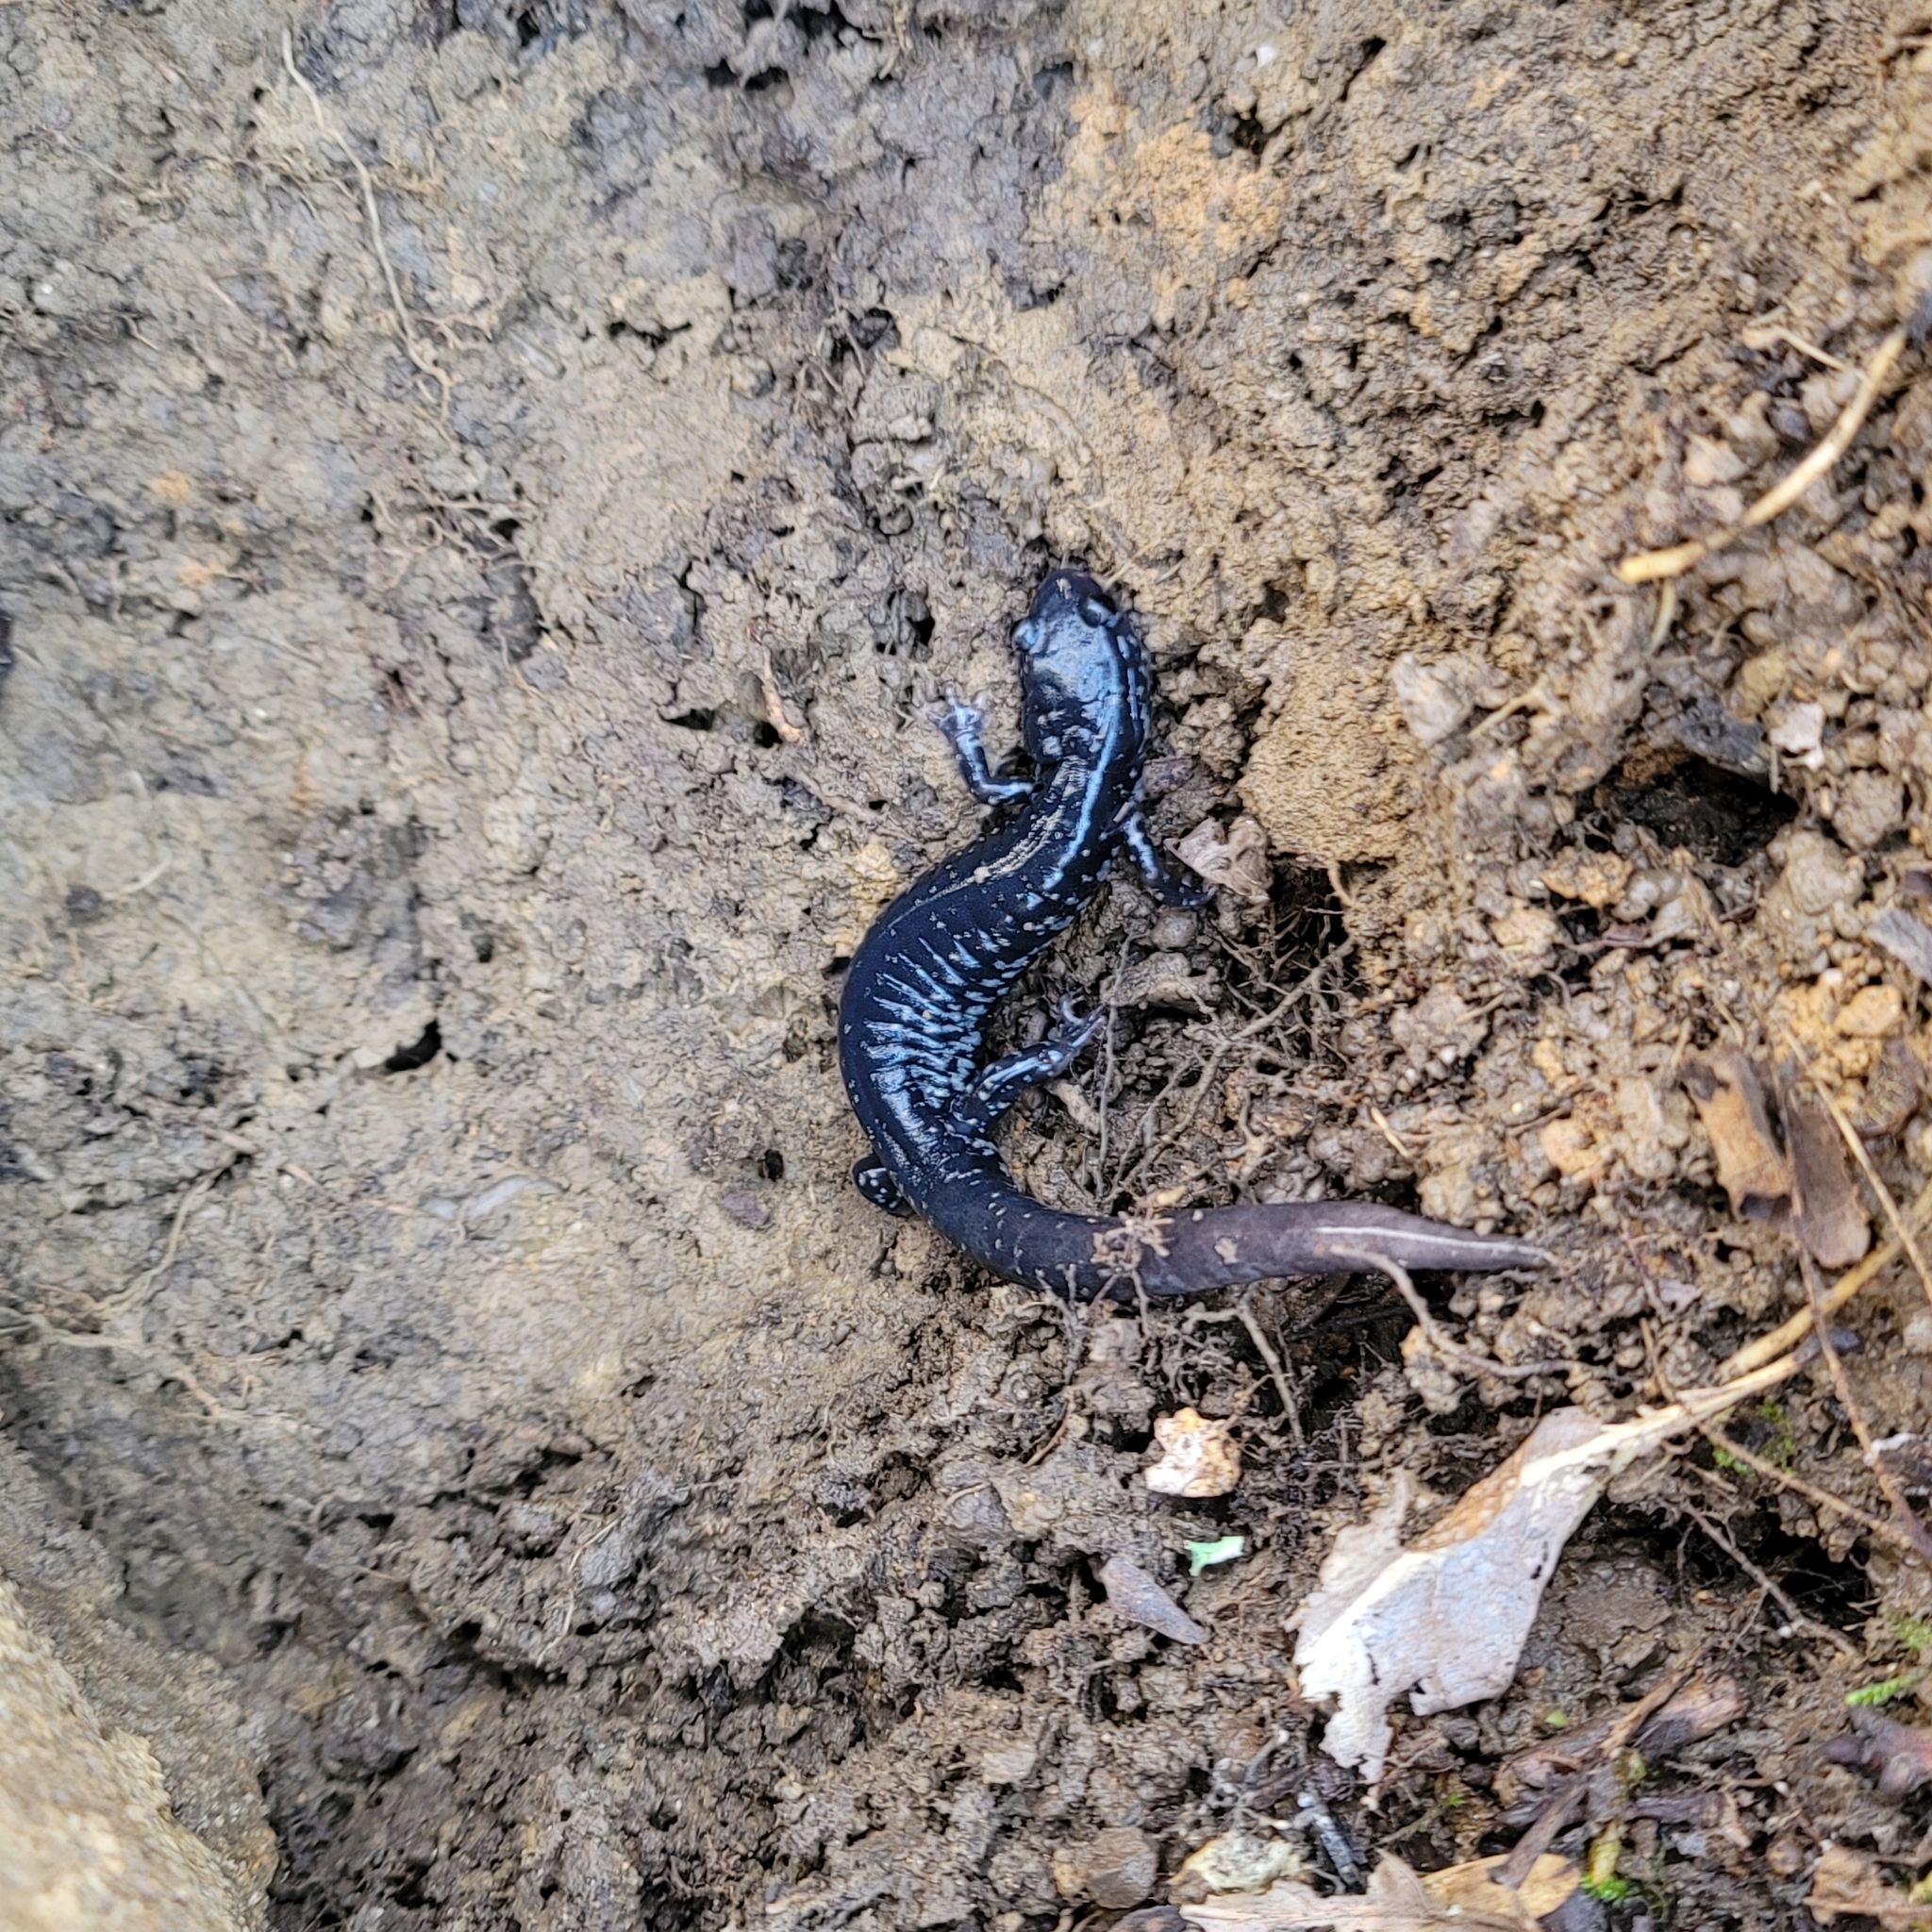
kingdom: Animalia
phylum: Chordata
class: Amphibia
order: Caudata
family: Plethodontidae
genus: Plethodon
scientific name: Plethodon glutinosus
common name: Northern slimy salamander
